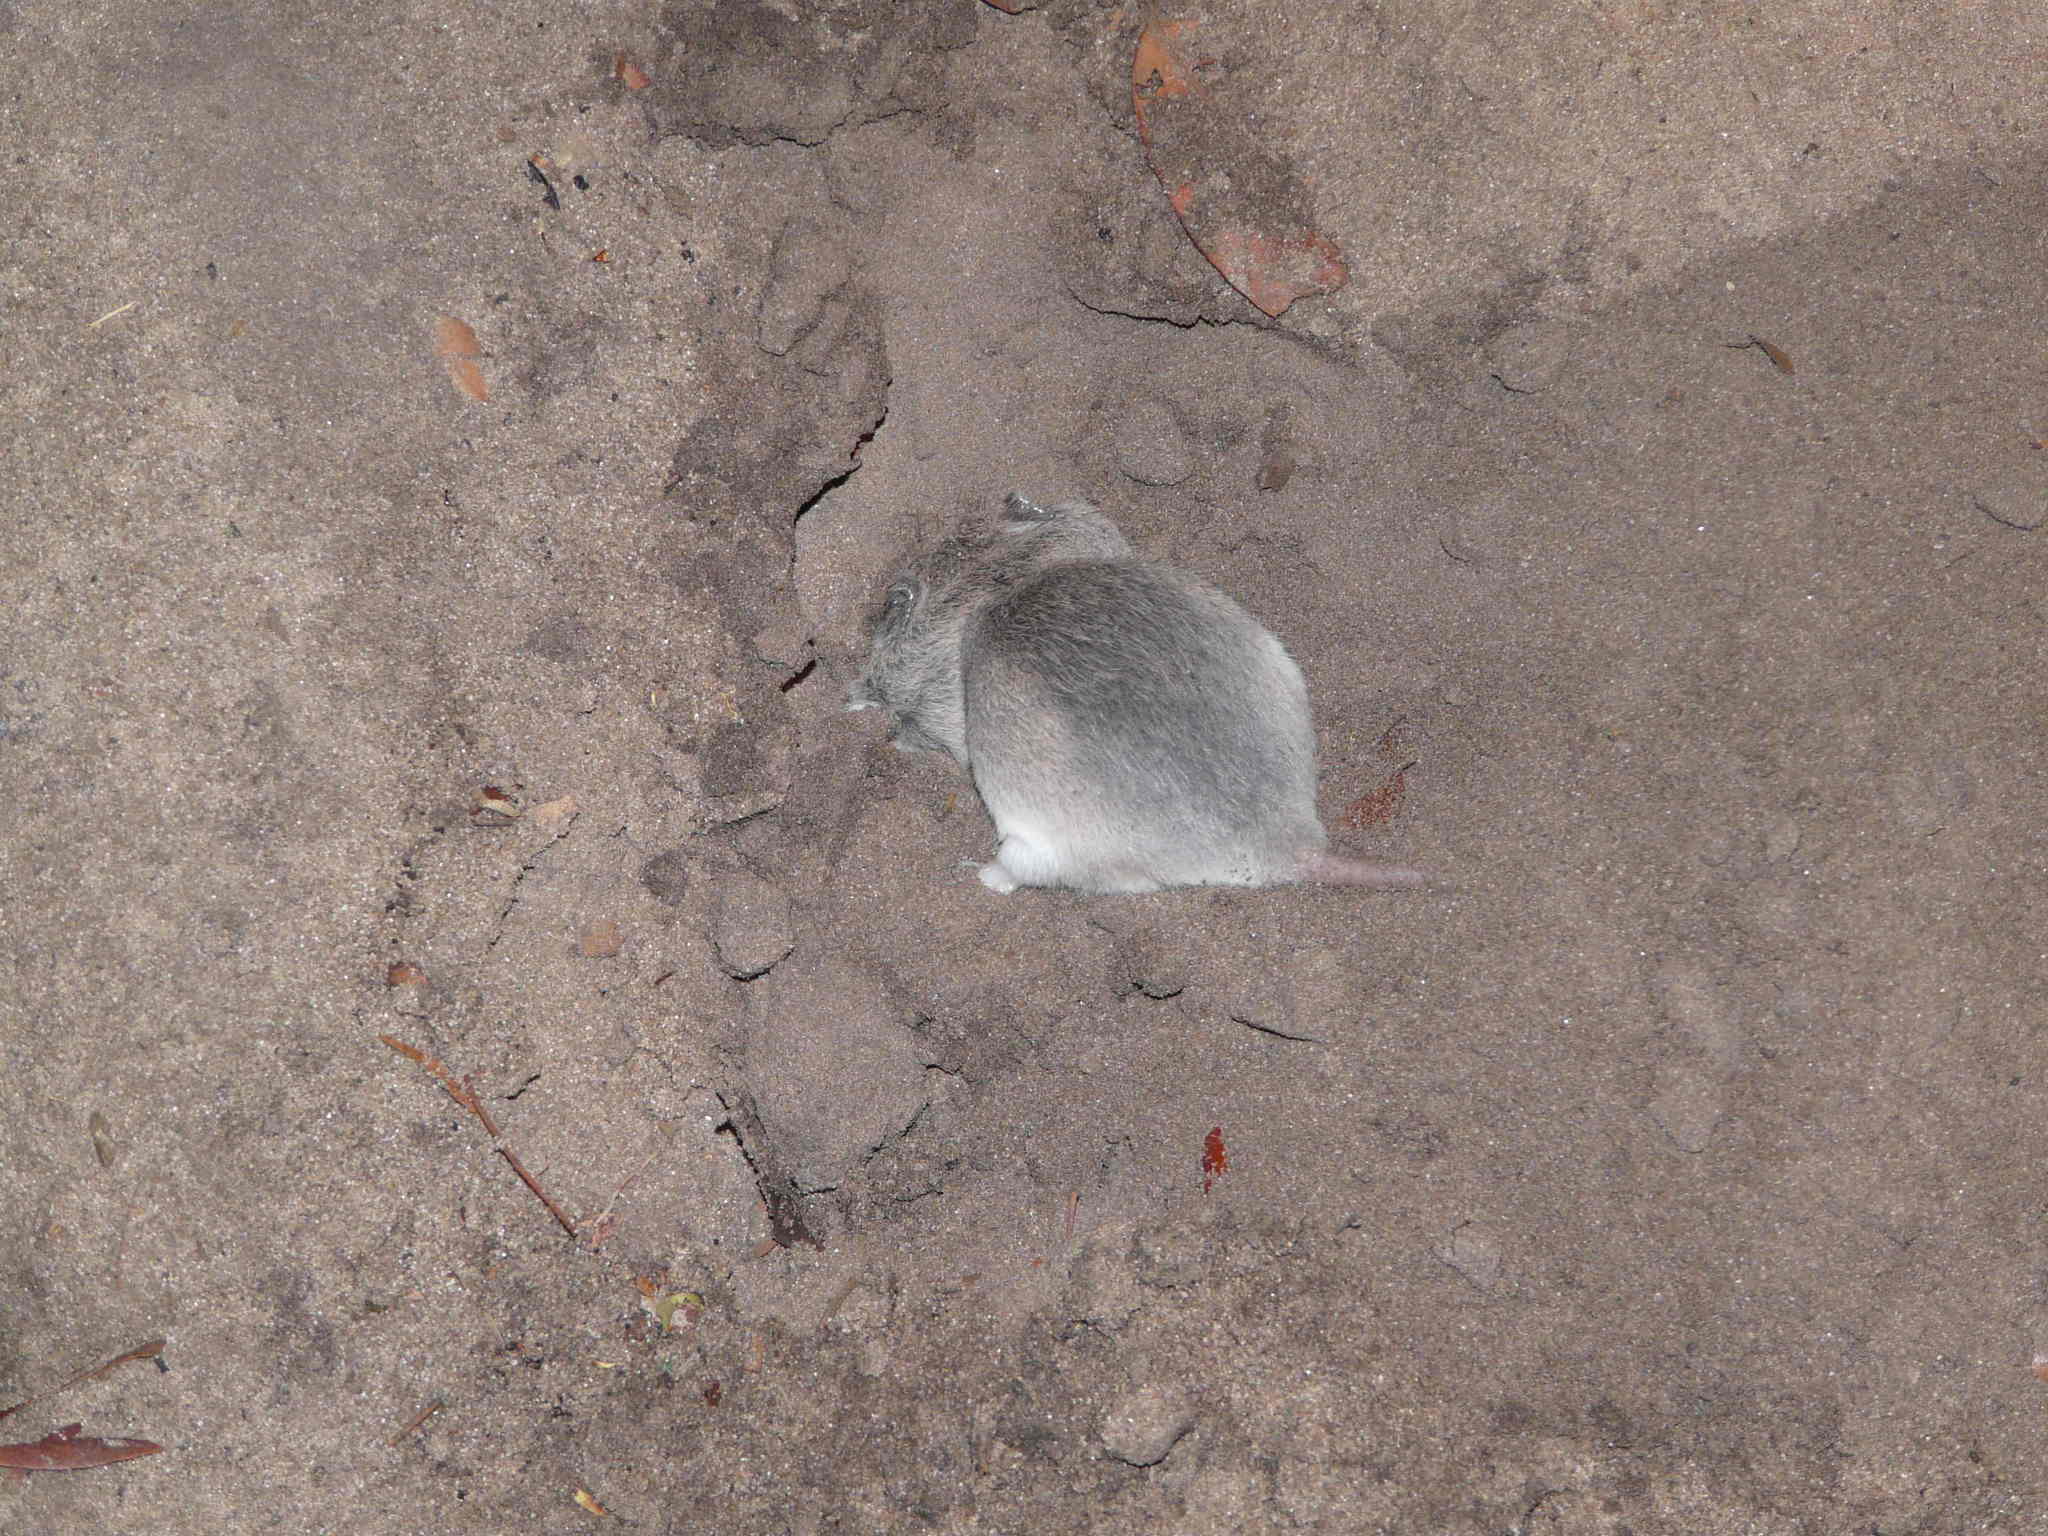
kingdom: Animalia
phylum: Chordata
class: Mammalia
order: Rodentia
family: Nesomyidae
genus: Saccostomus
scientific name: Saccostomus campestris
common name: Southern african pouched mouse
